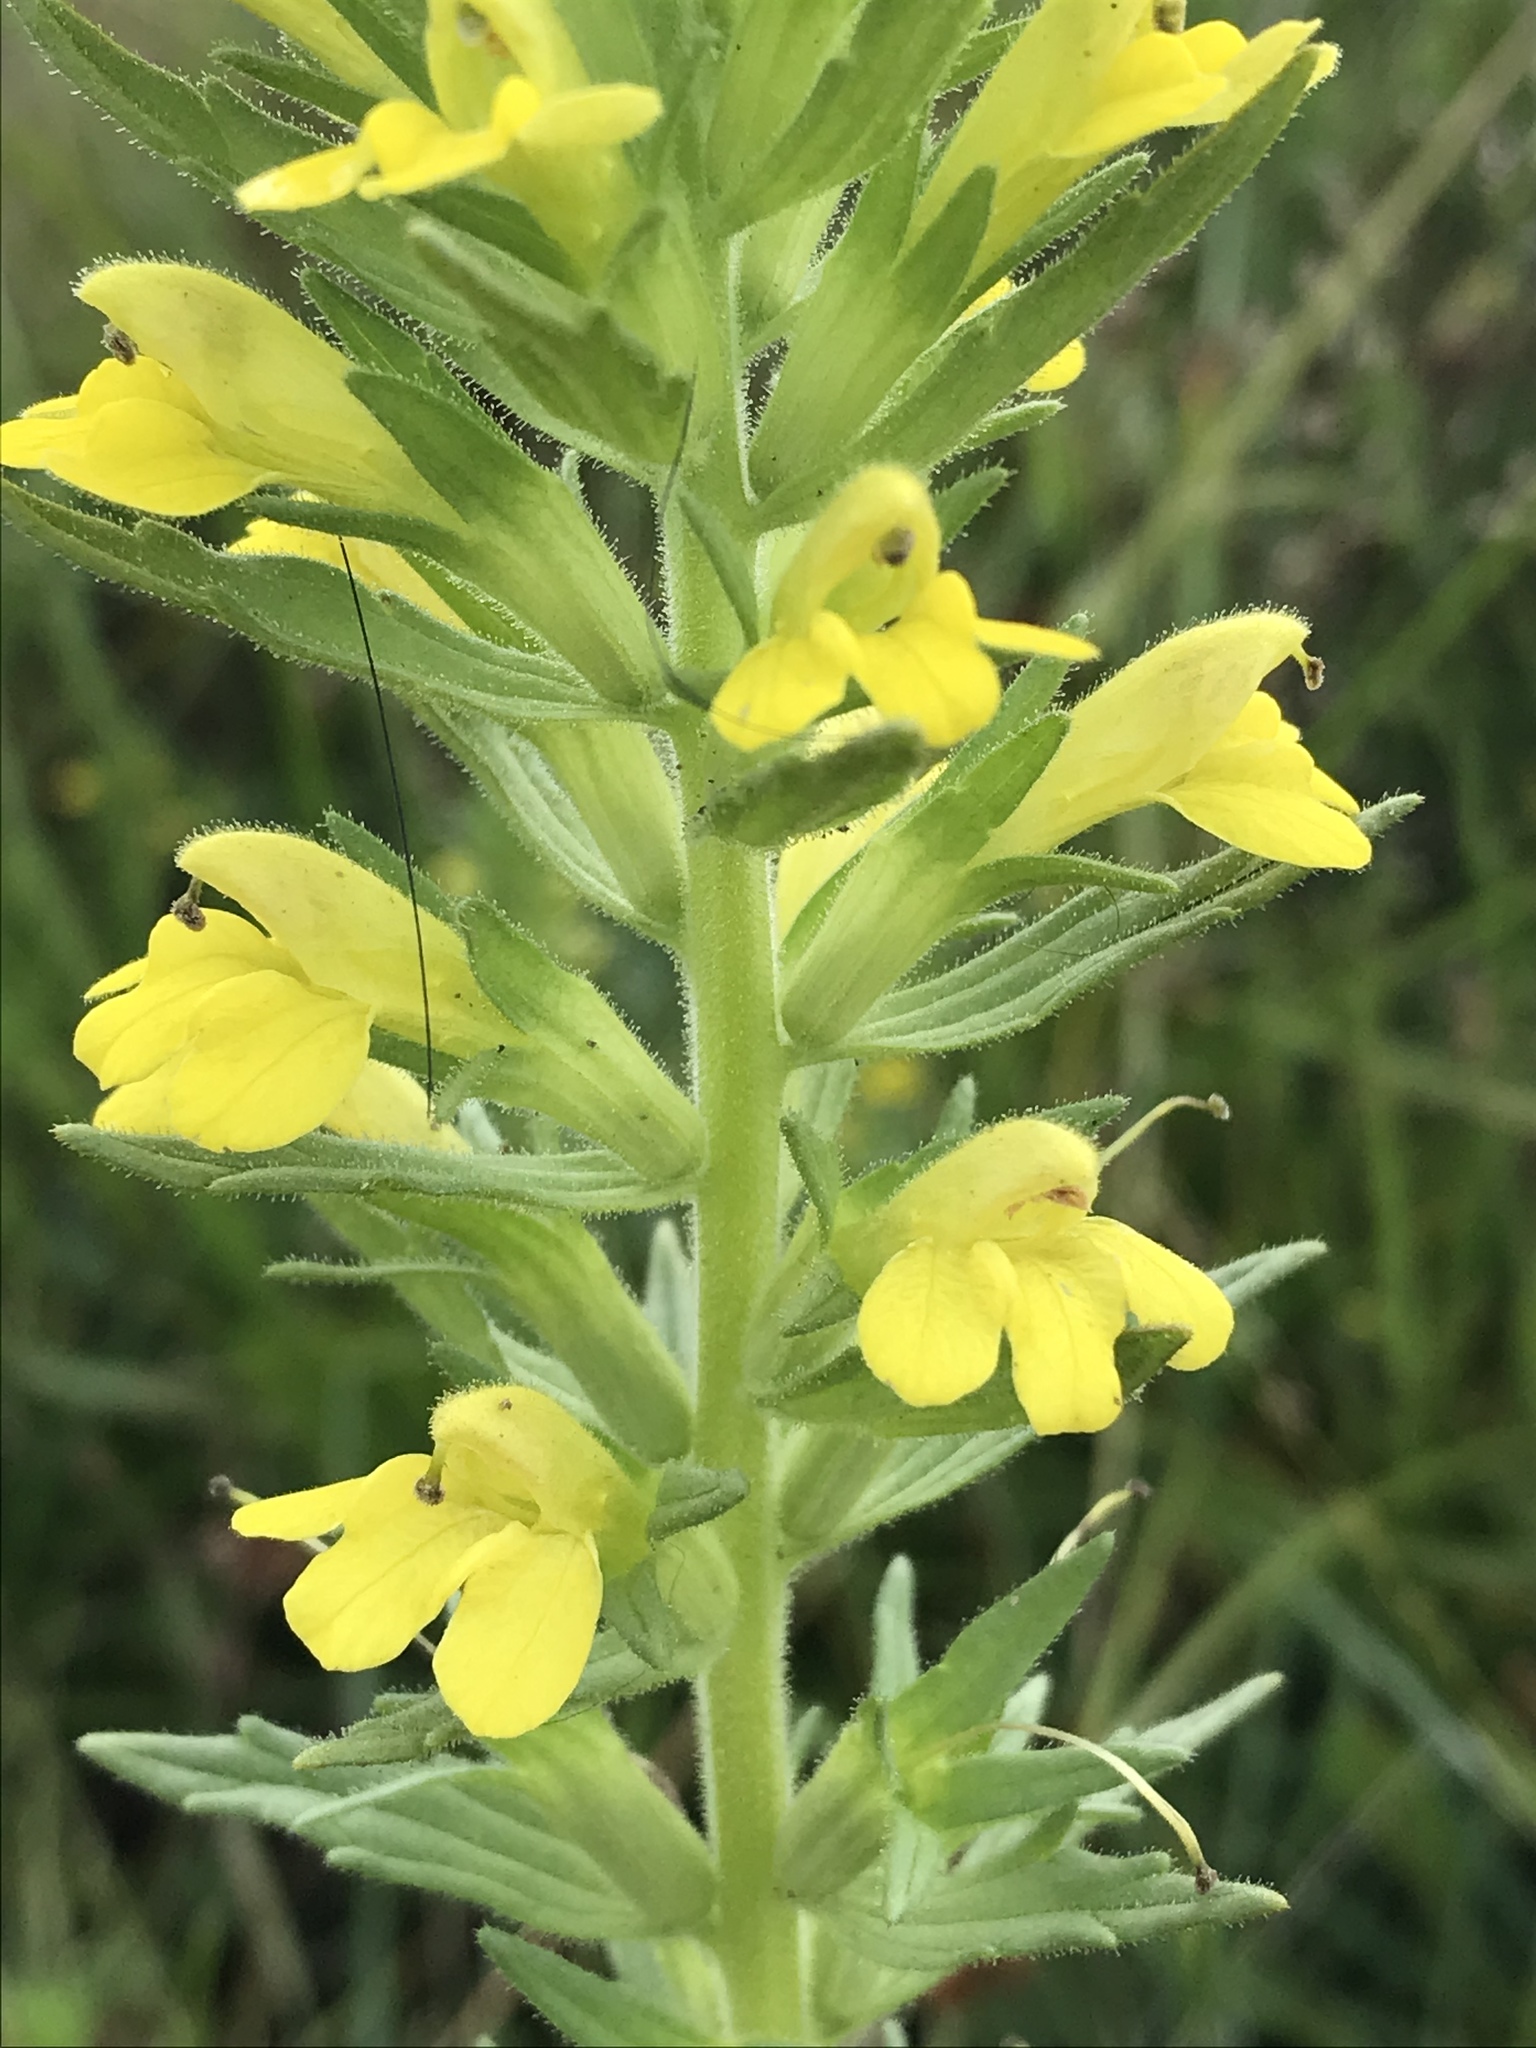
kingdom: Plantae
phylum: Tracheophyta
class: Magnoliopsida
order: Lamiales
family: Orobanchaceae
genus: Bellardia
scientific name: Bellardia viscosa
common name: Sticky parentucellia
